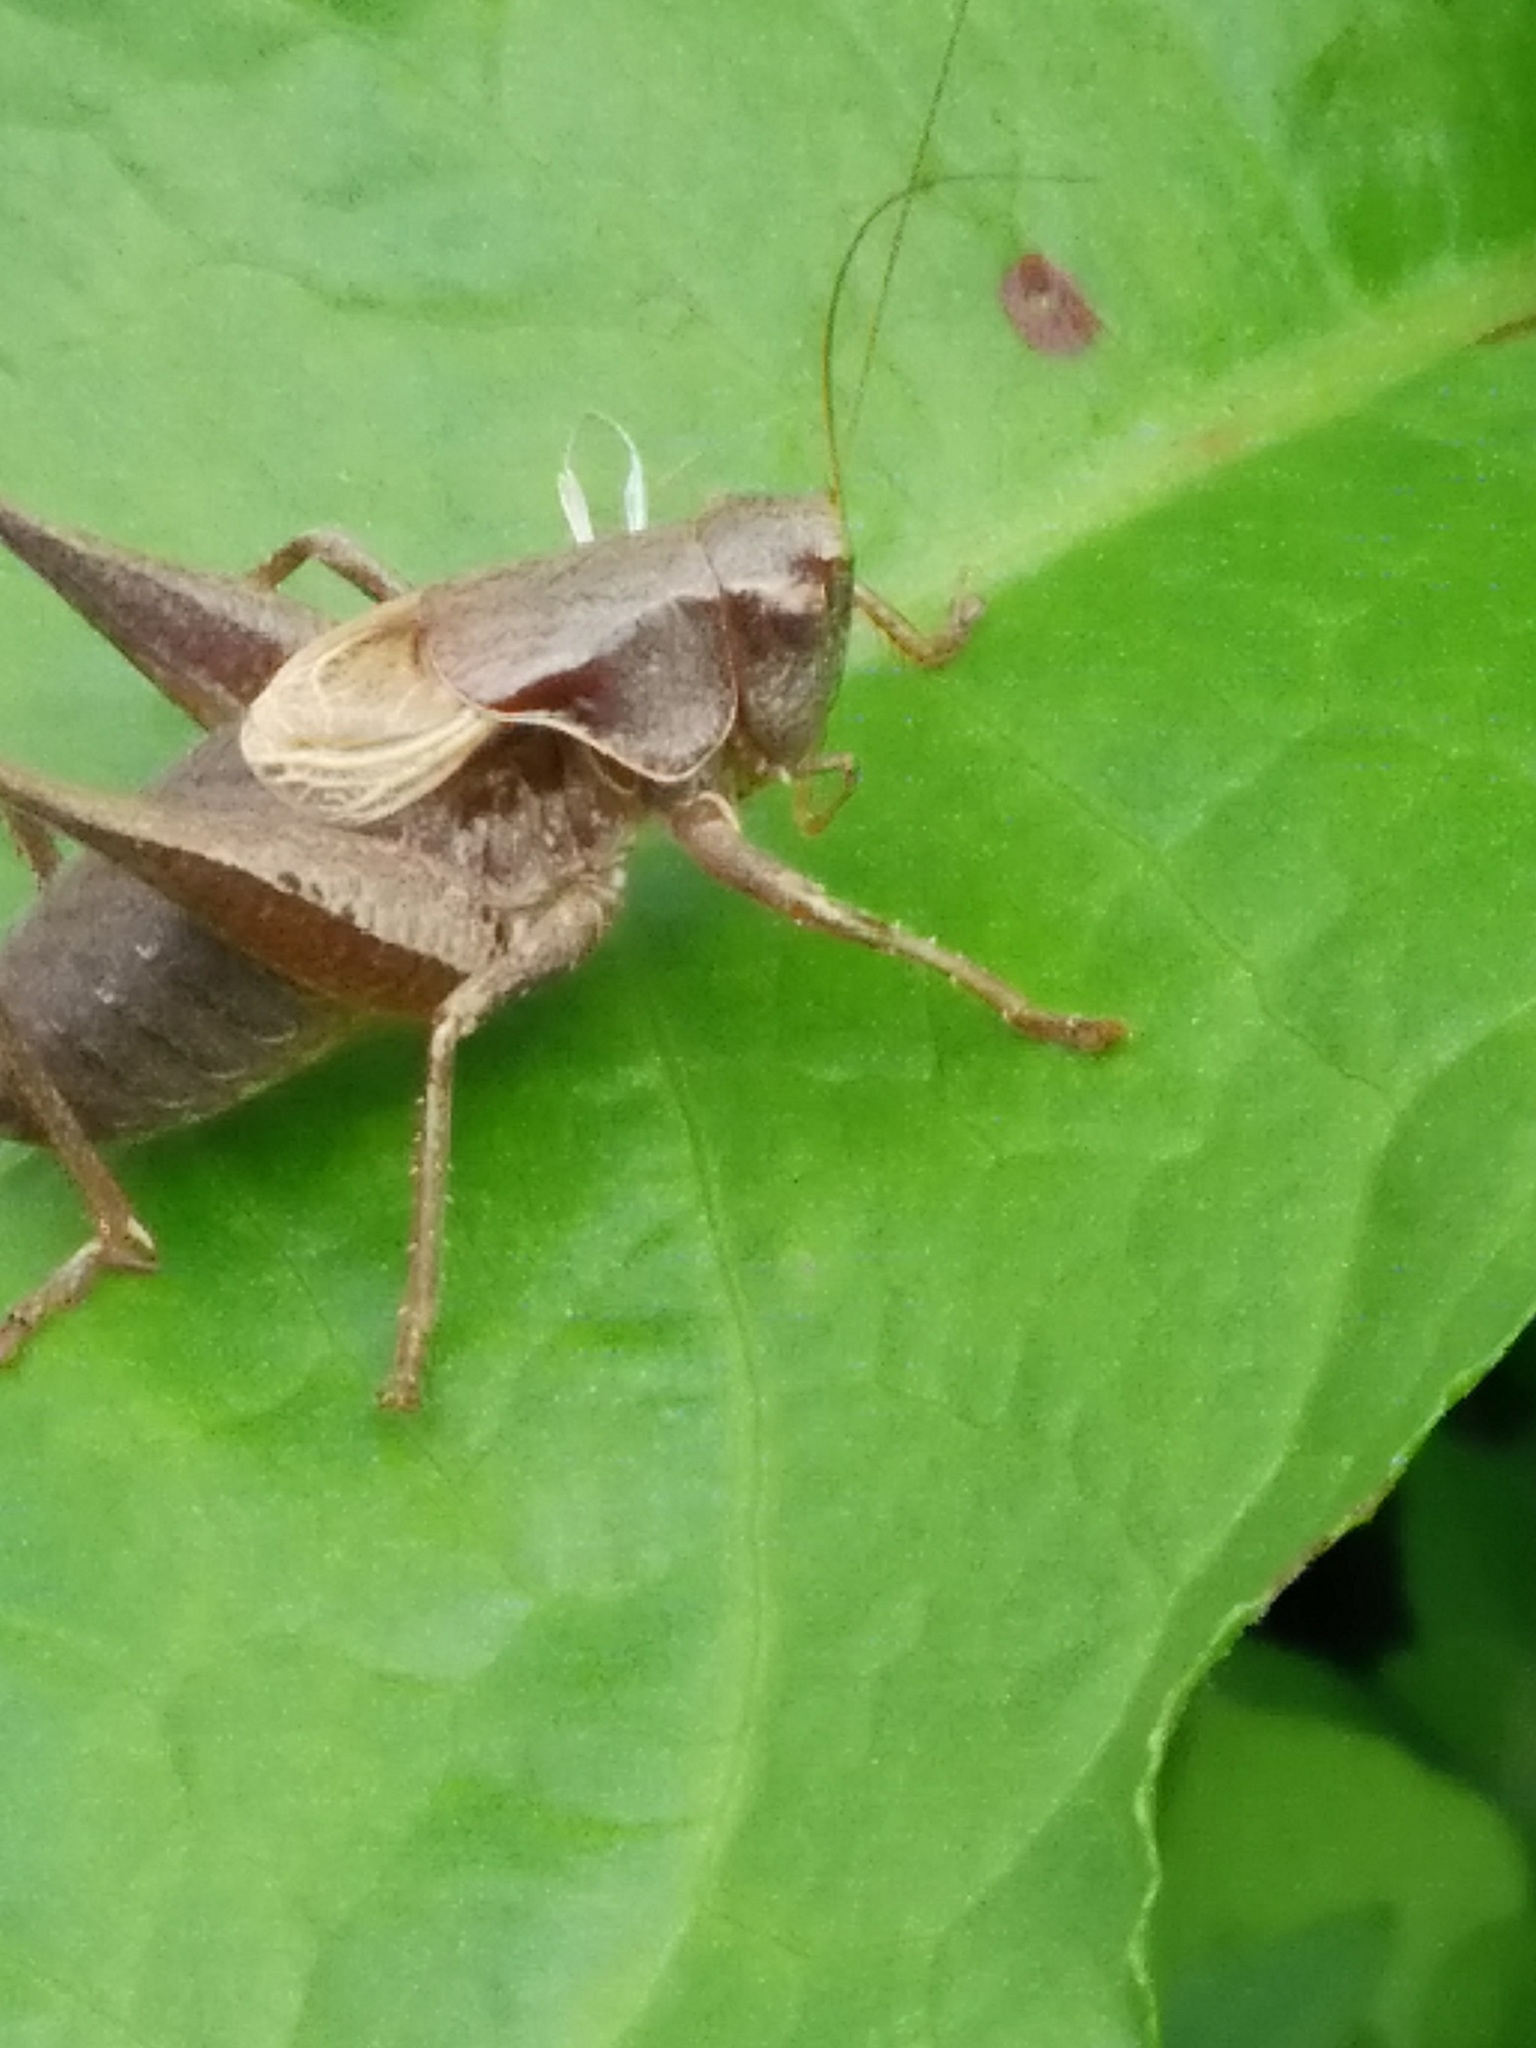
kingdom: Animalia
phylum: Arthropoda
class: Insecta
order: Orthoptera
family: Tettigoniidae
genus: Pholidoptera
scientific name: Pholidoptera griseoaptera
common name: Dark bush-cricket
